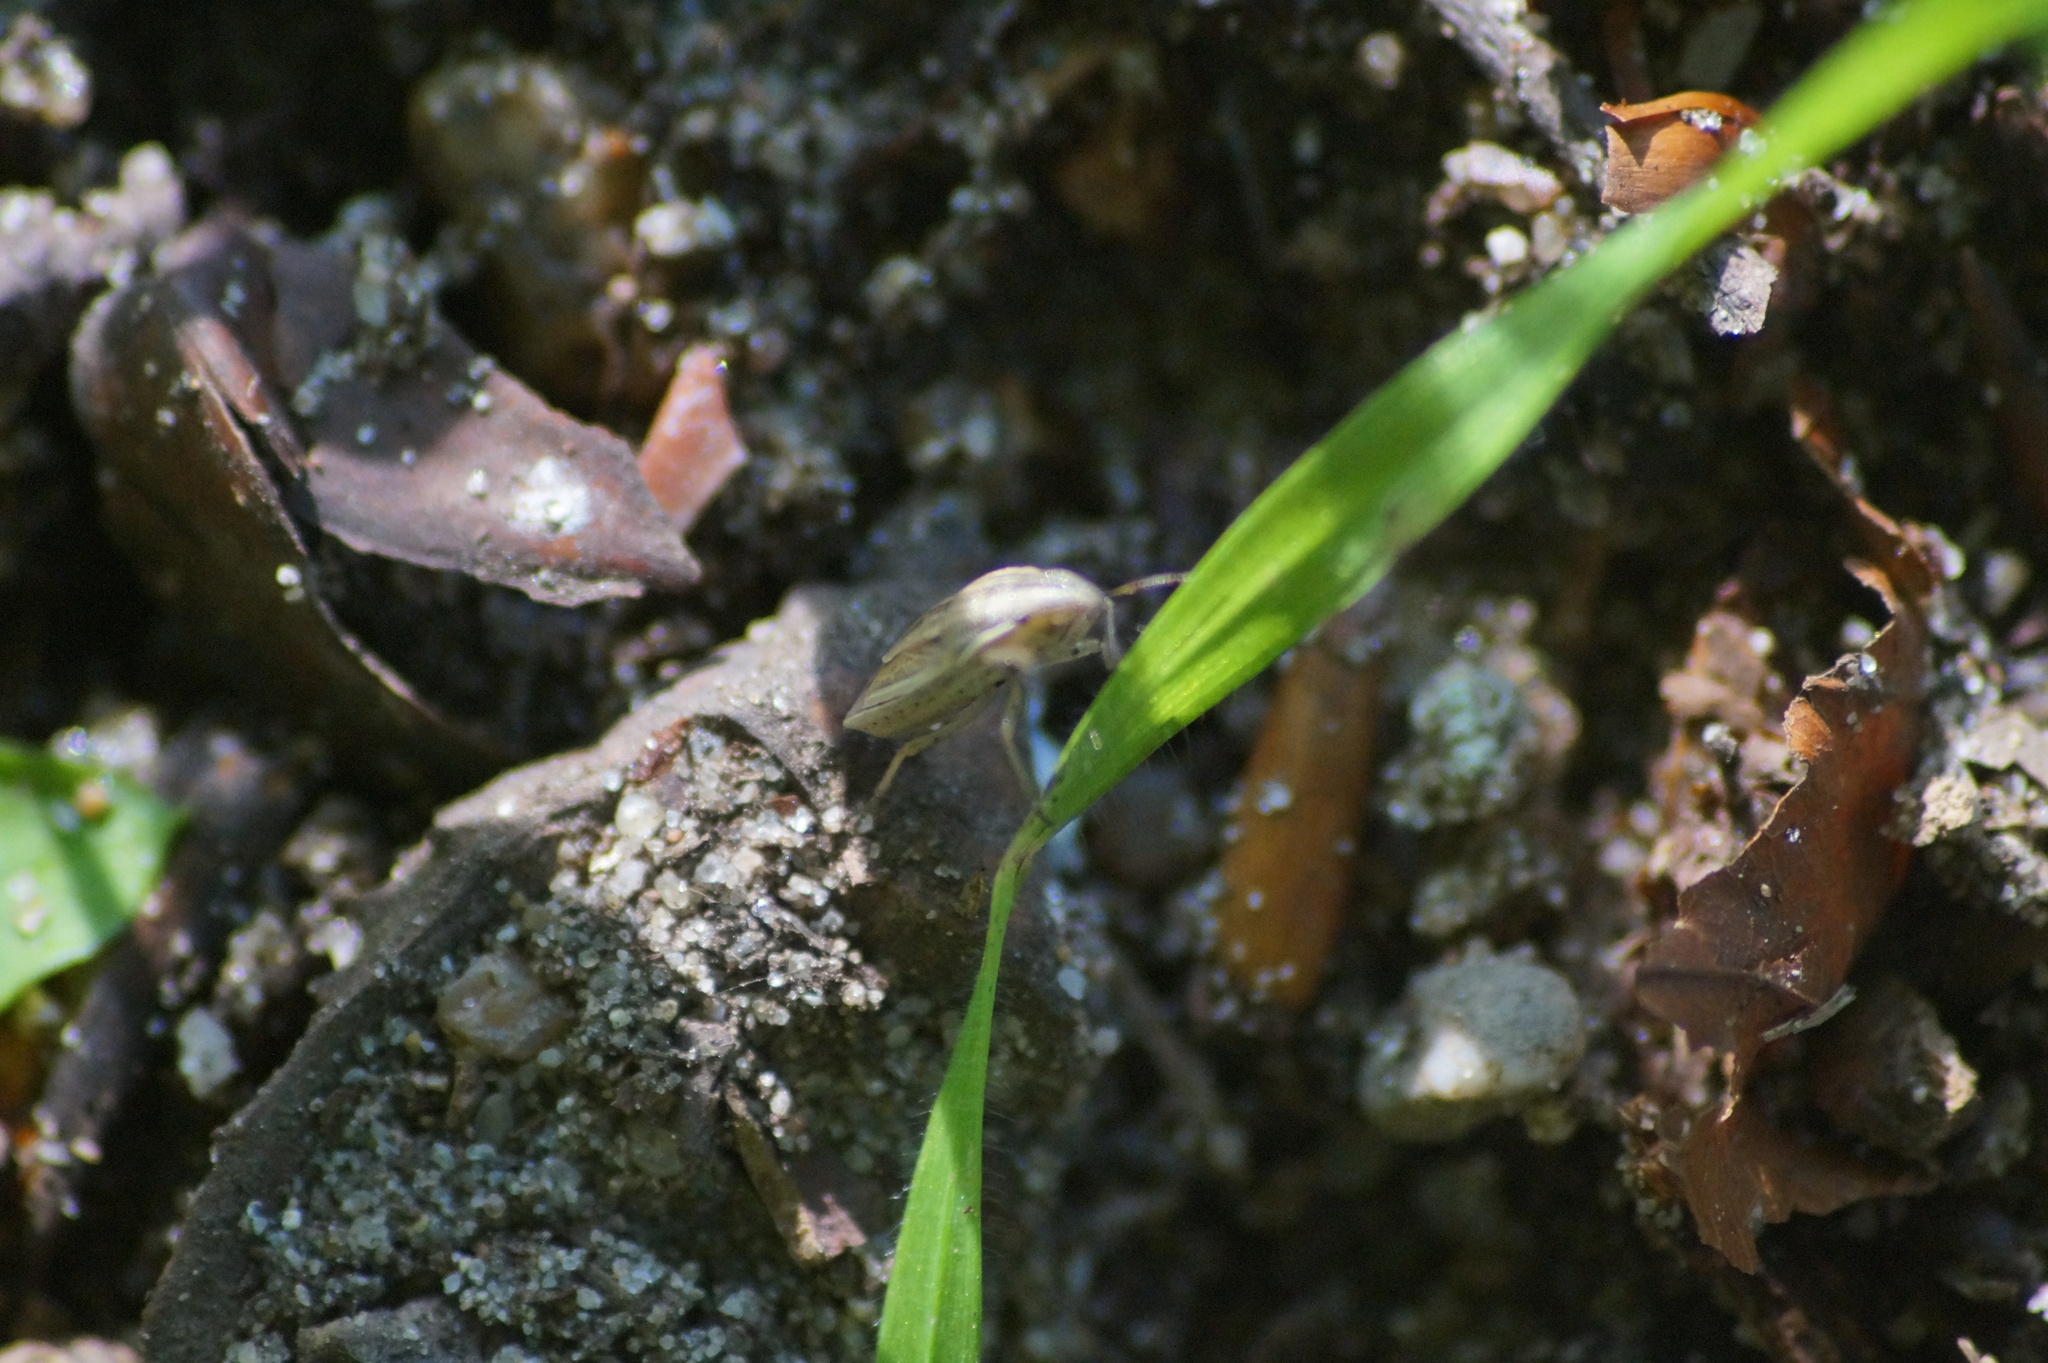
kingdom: Animalia
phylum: Arthropoda
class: Insecta
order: Hemiptera
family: Pentatomidae
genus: Aelia
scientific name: Aelia acuminata
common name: Bishop's mitre
